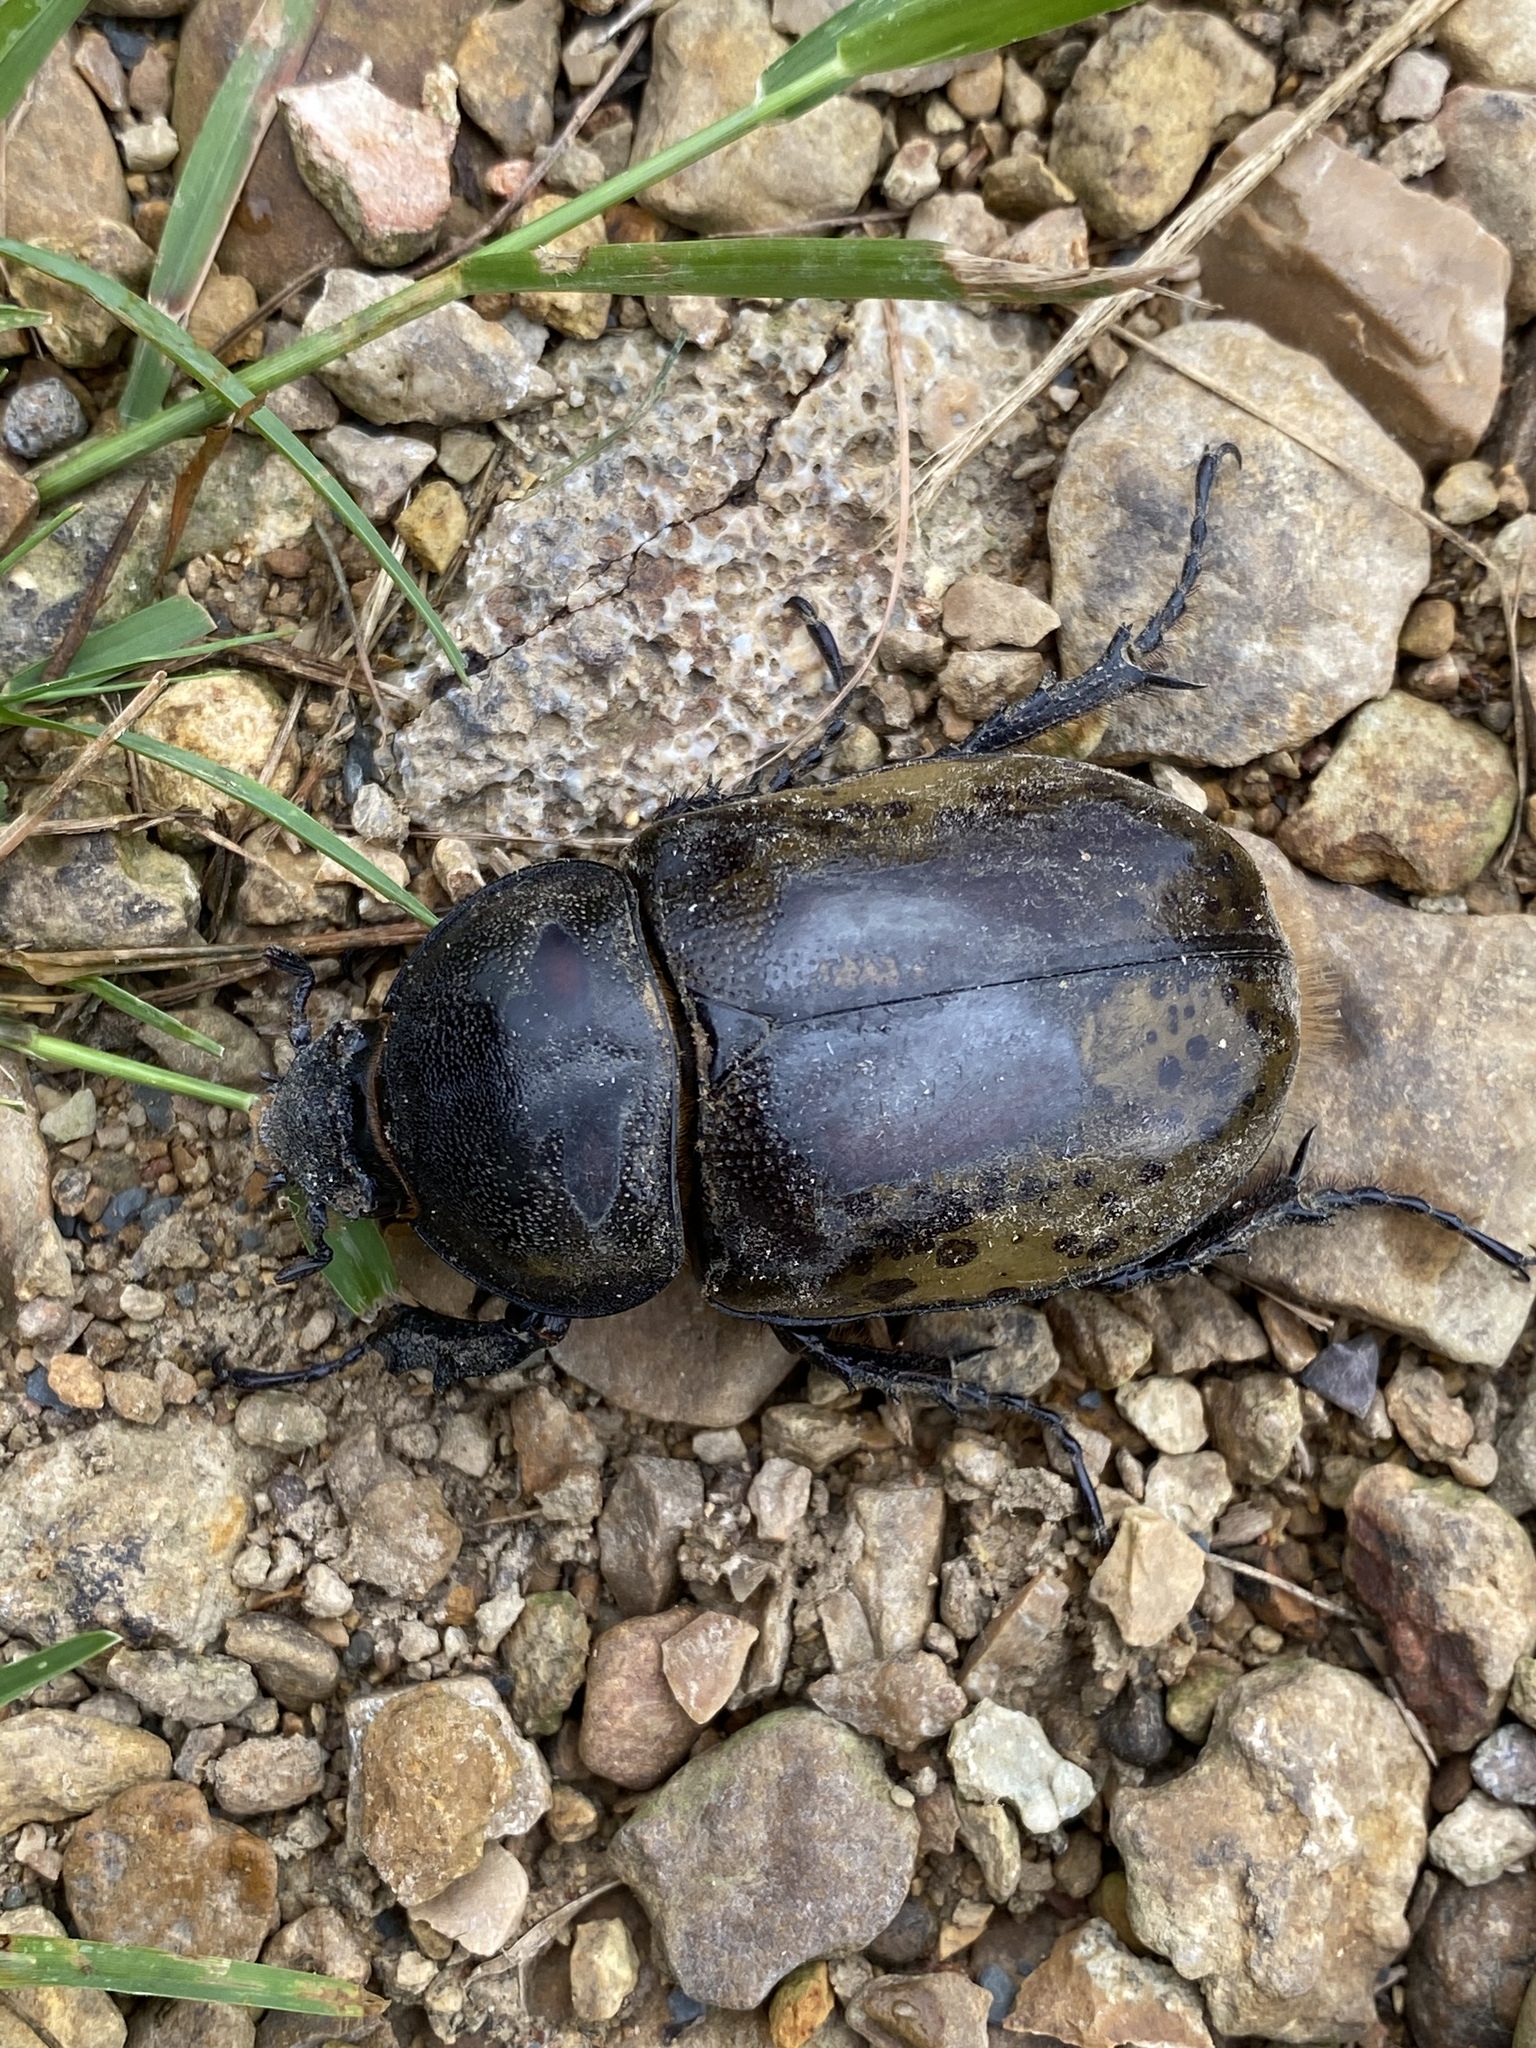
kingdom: Animalia
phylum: Arthropoda
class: Insecta
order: Coleoptera
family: Scarabaeidae
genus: Dynastes
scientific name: Dynastes tityus
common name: Eastern hercules beetle
